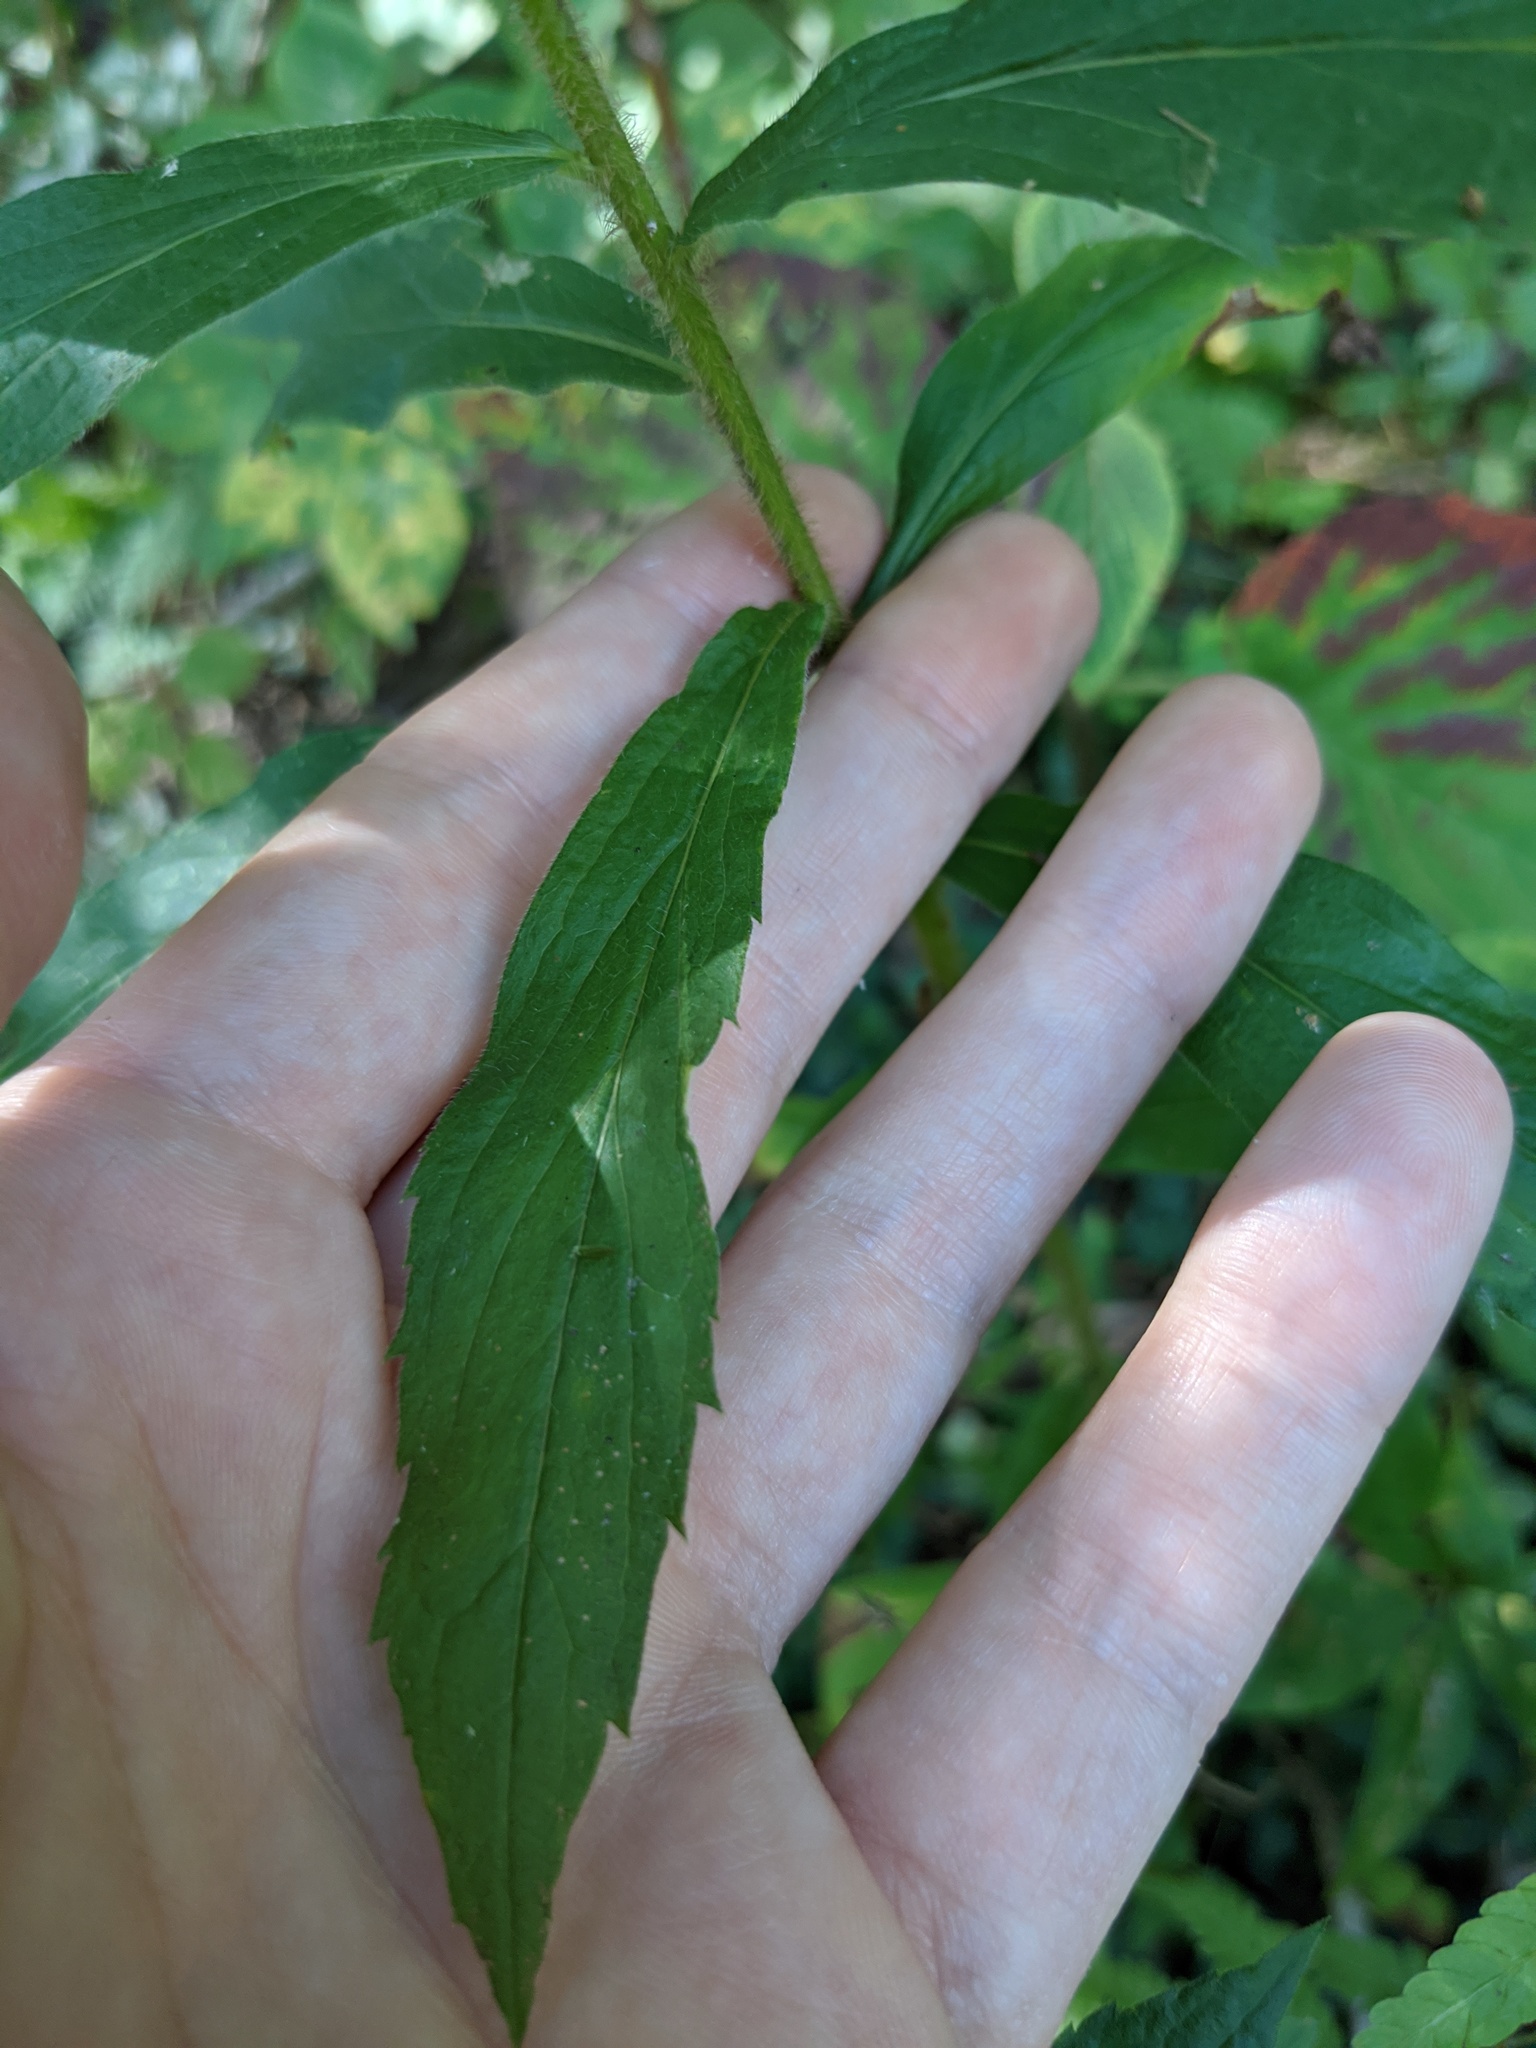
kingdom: Plantae
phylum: Tracheophyta
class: Magnoliopsida
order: Asterales
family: Asteraceae
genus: Solidago
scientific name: Solidago rugosa
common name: Rough-stemmed goldenrod
